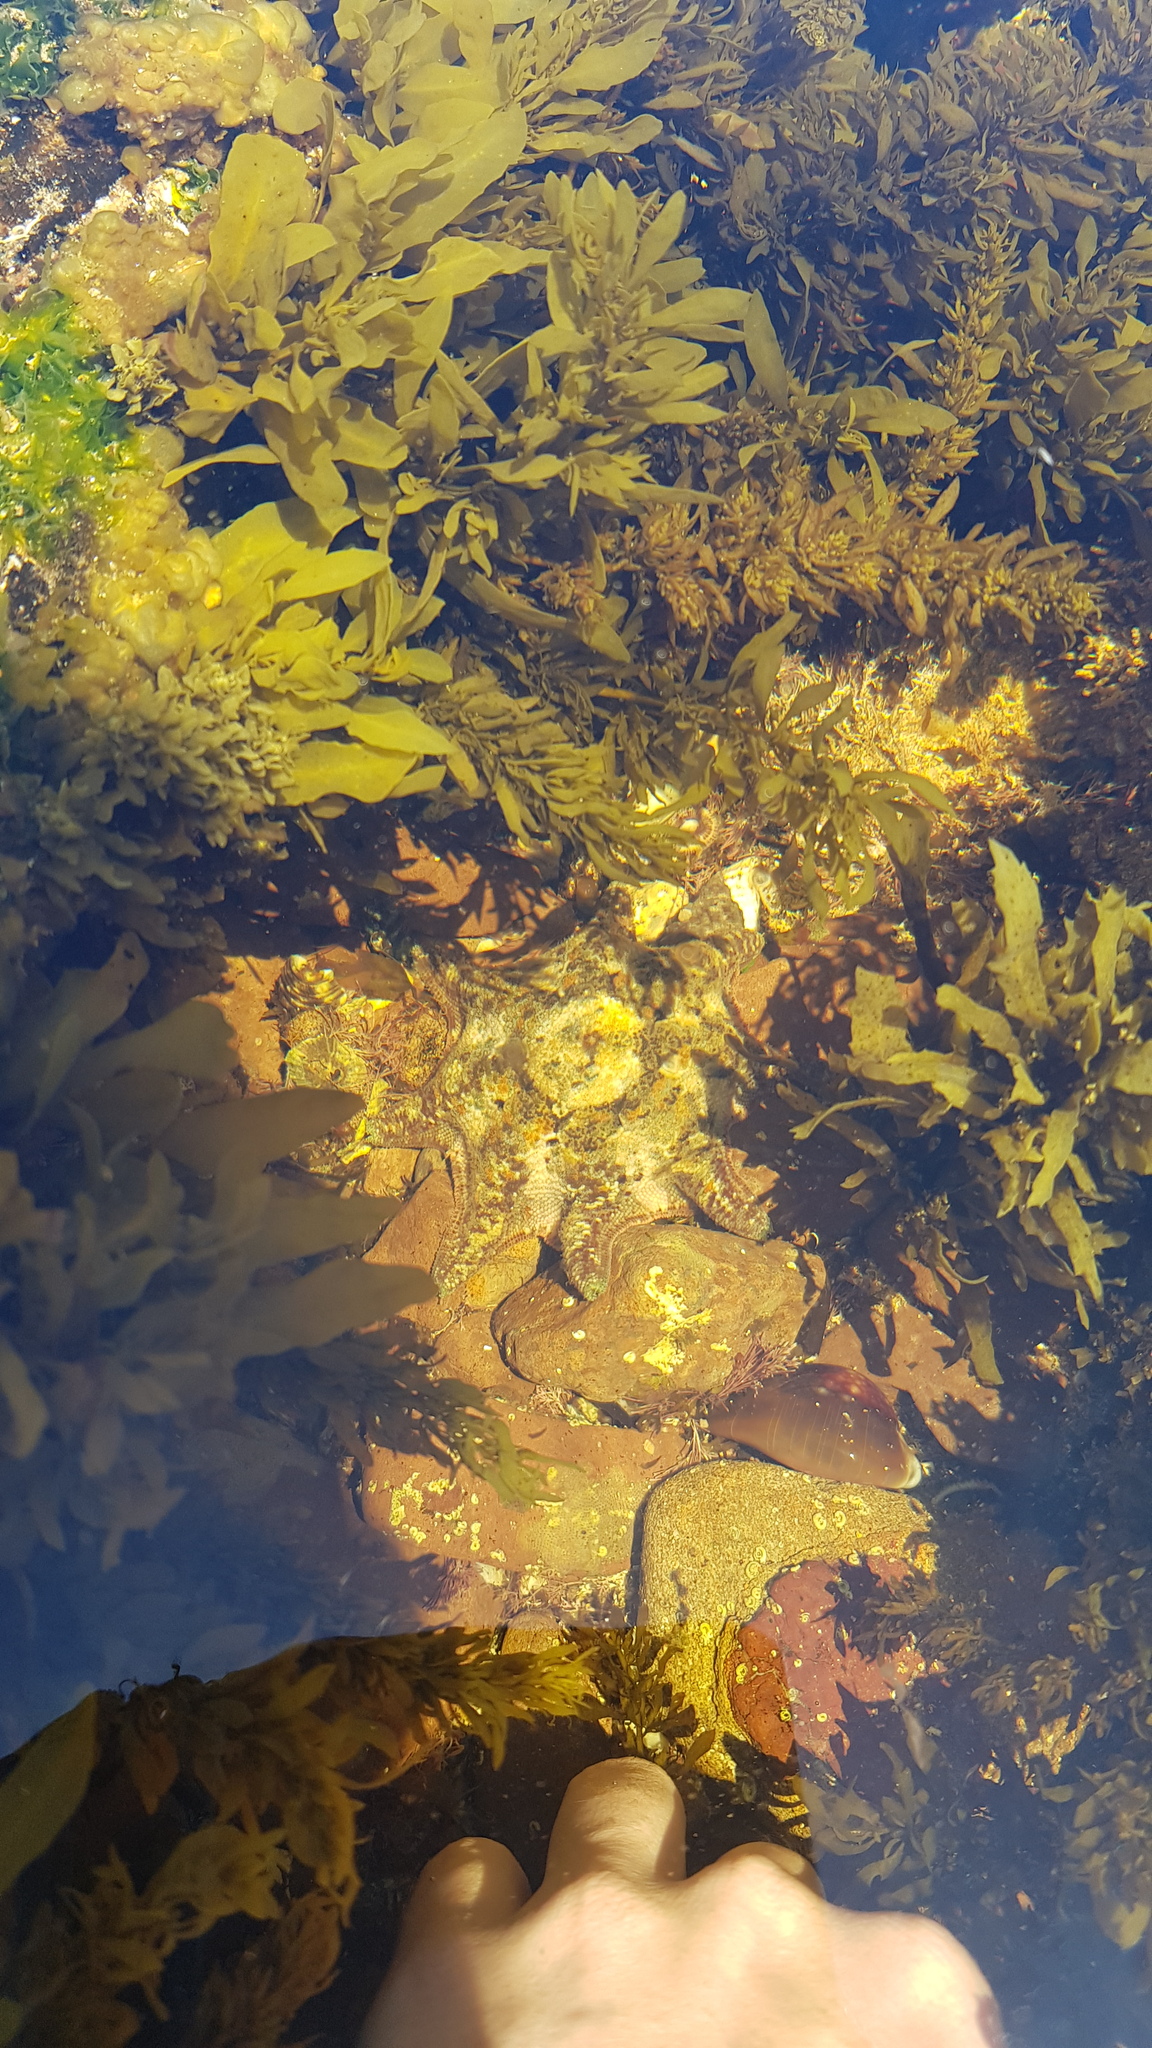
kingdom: Animalia
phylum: Echinodermata
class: Asteroidea
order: Valvatida
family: Asterinidae
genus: Meridiastra
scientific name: Meridiastra calcar
